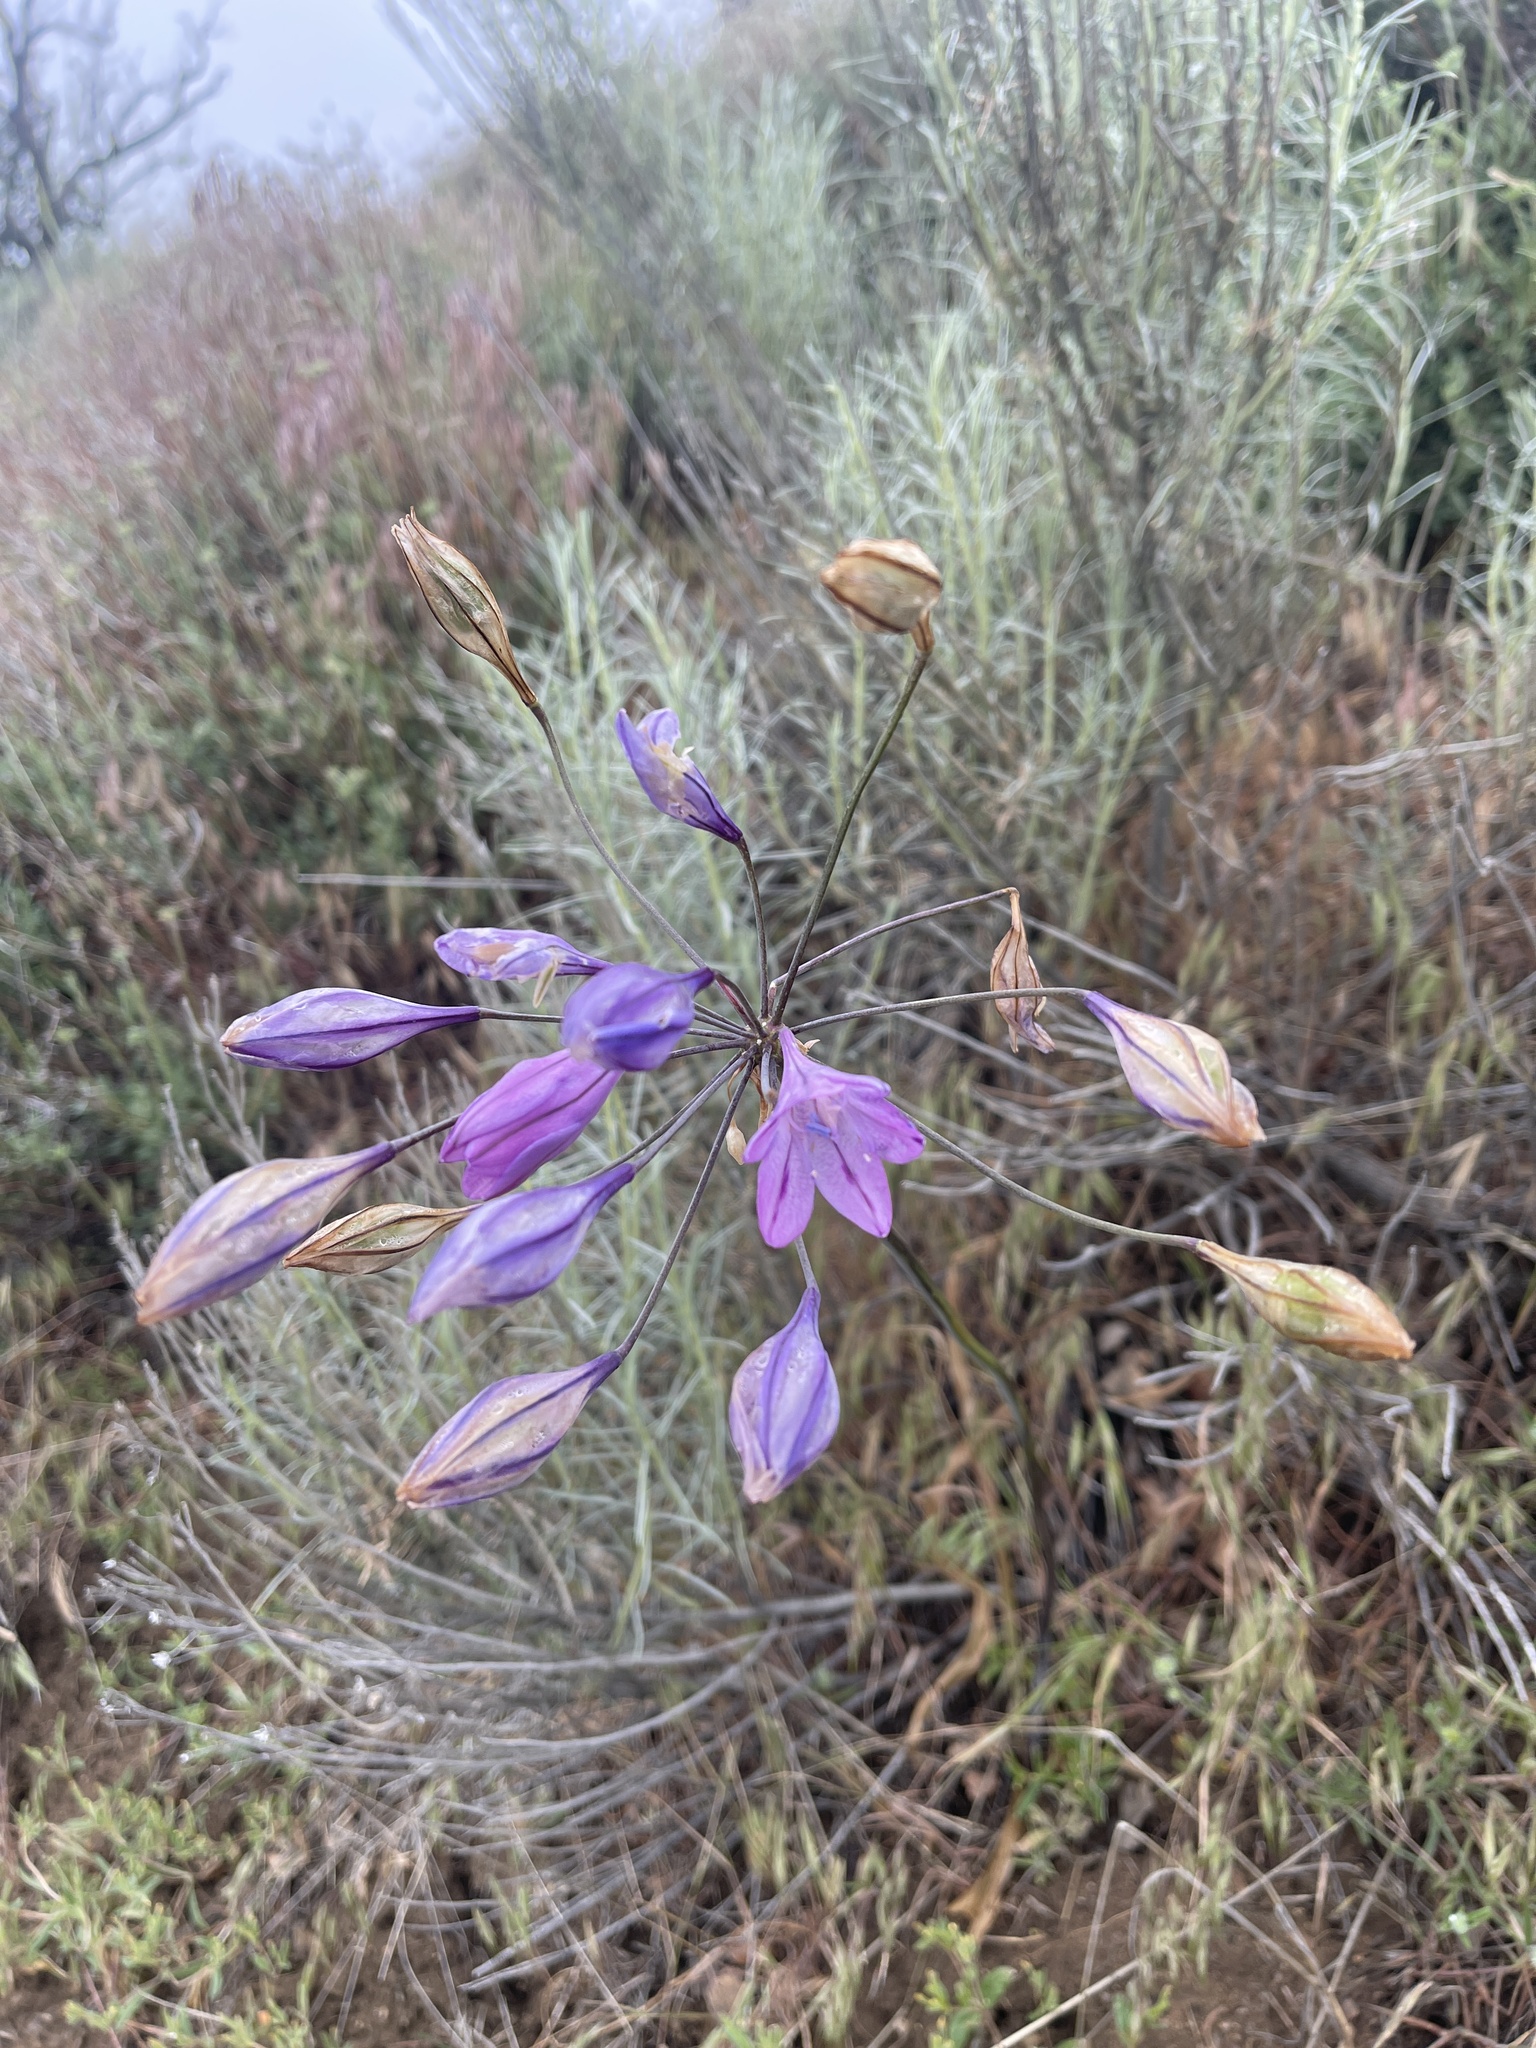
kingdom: Plantae
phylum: Tracheophyta
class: Liliopsida
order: Asparagales
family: Asparagaceae
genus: Triteleia
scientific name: Triteleia laxa
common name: Triplet-lily
